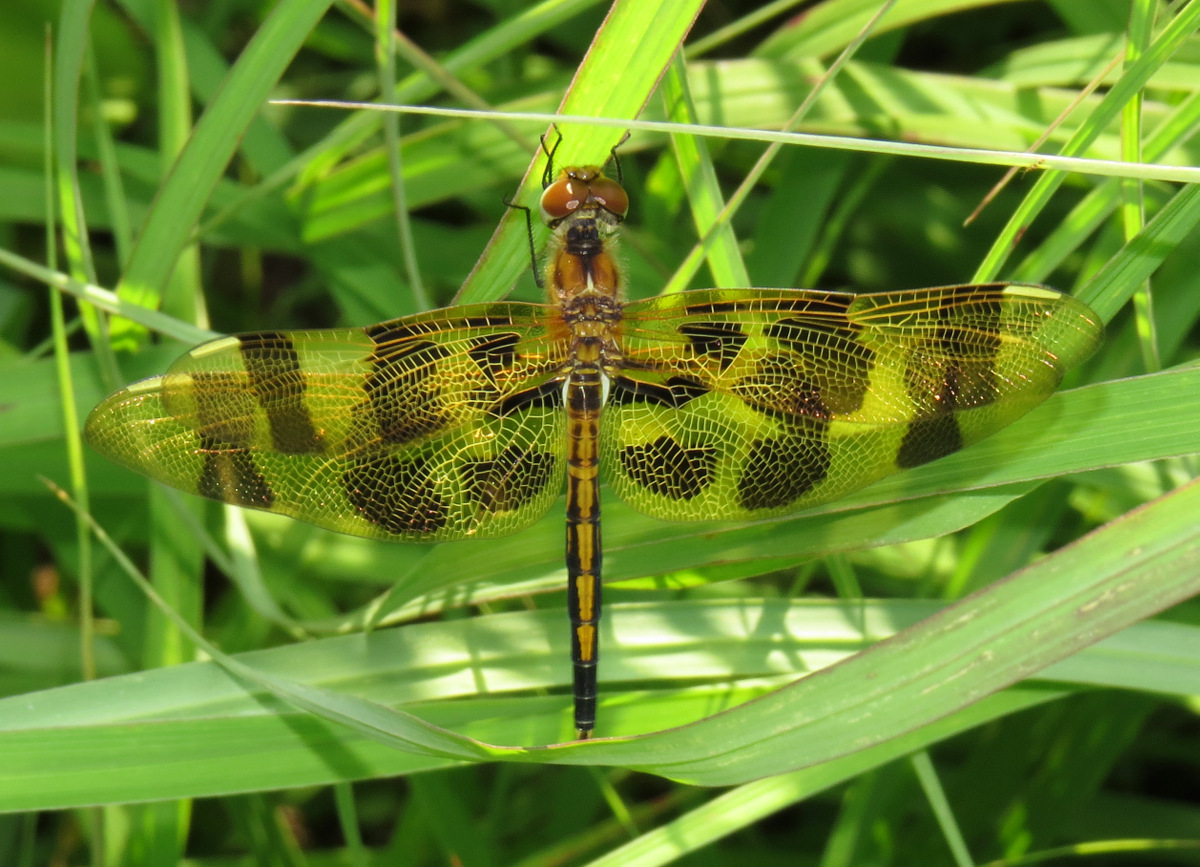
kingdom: Animalia
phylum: Arthropoda
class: Insecta
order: Odonata
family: Libellulidae
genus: Celithemis
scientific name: Celithemis eponina
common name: Halloween pennant
